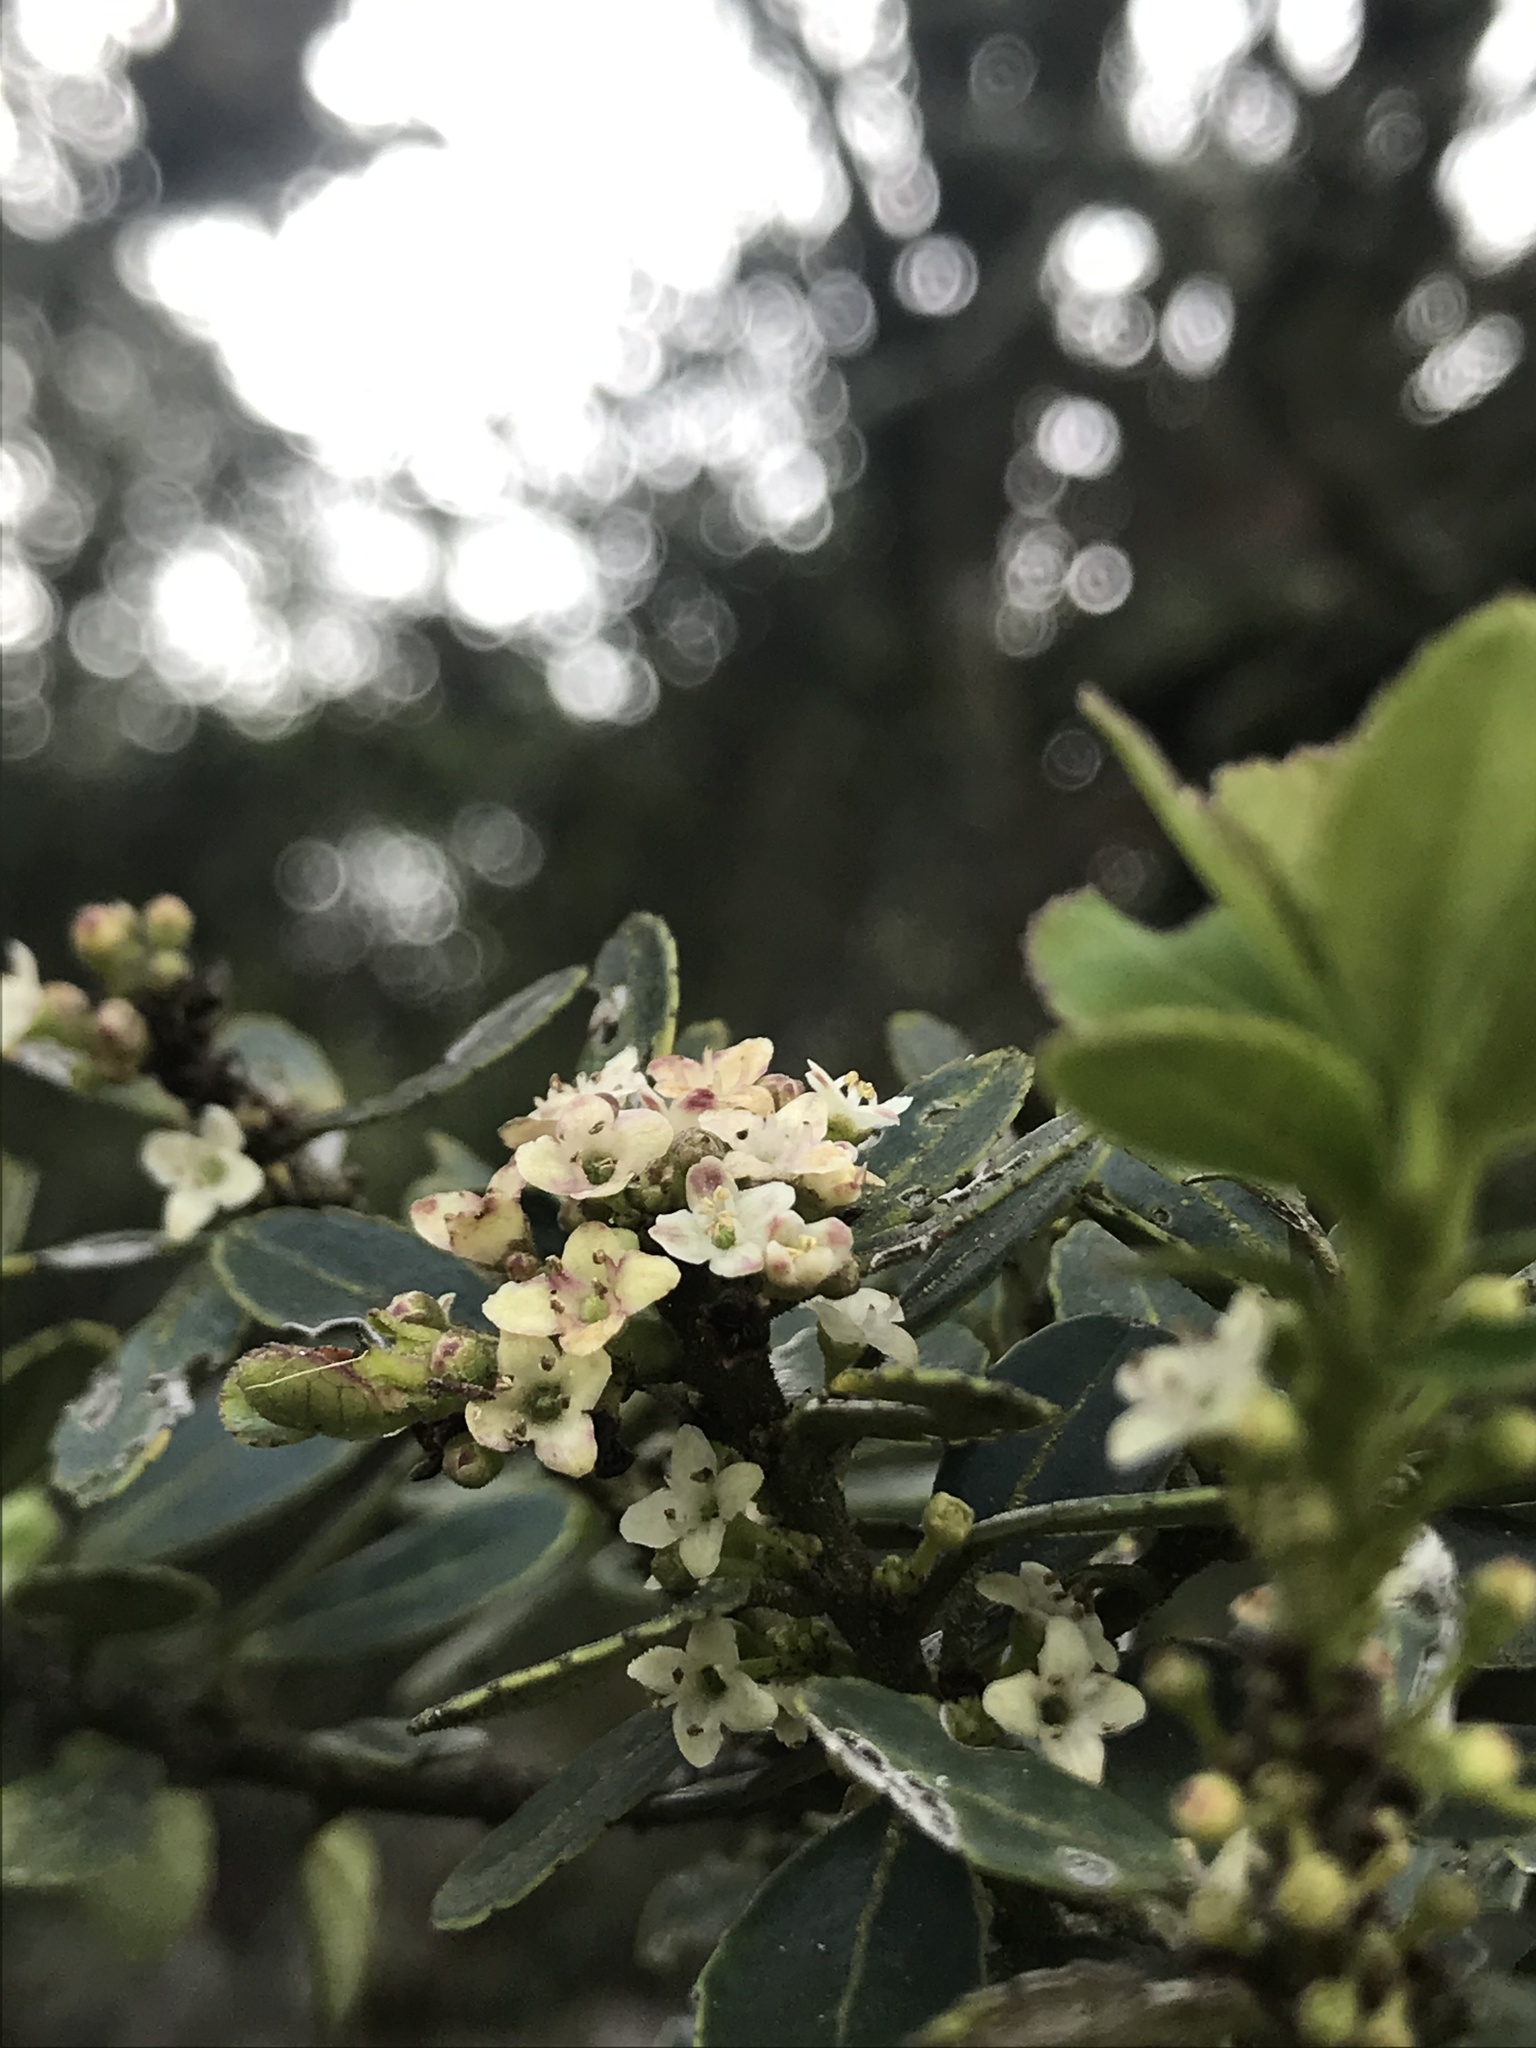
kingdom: Plantae
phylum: Tracheophyta
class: Magnoliopsida
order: Aquifoliales
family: Aquifoliaceae
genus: Ilex
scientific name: Ilex microphylla
